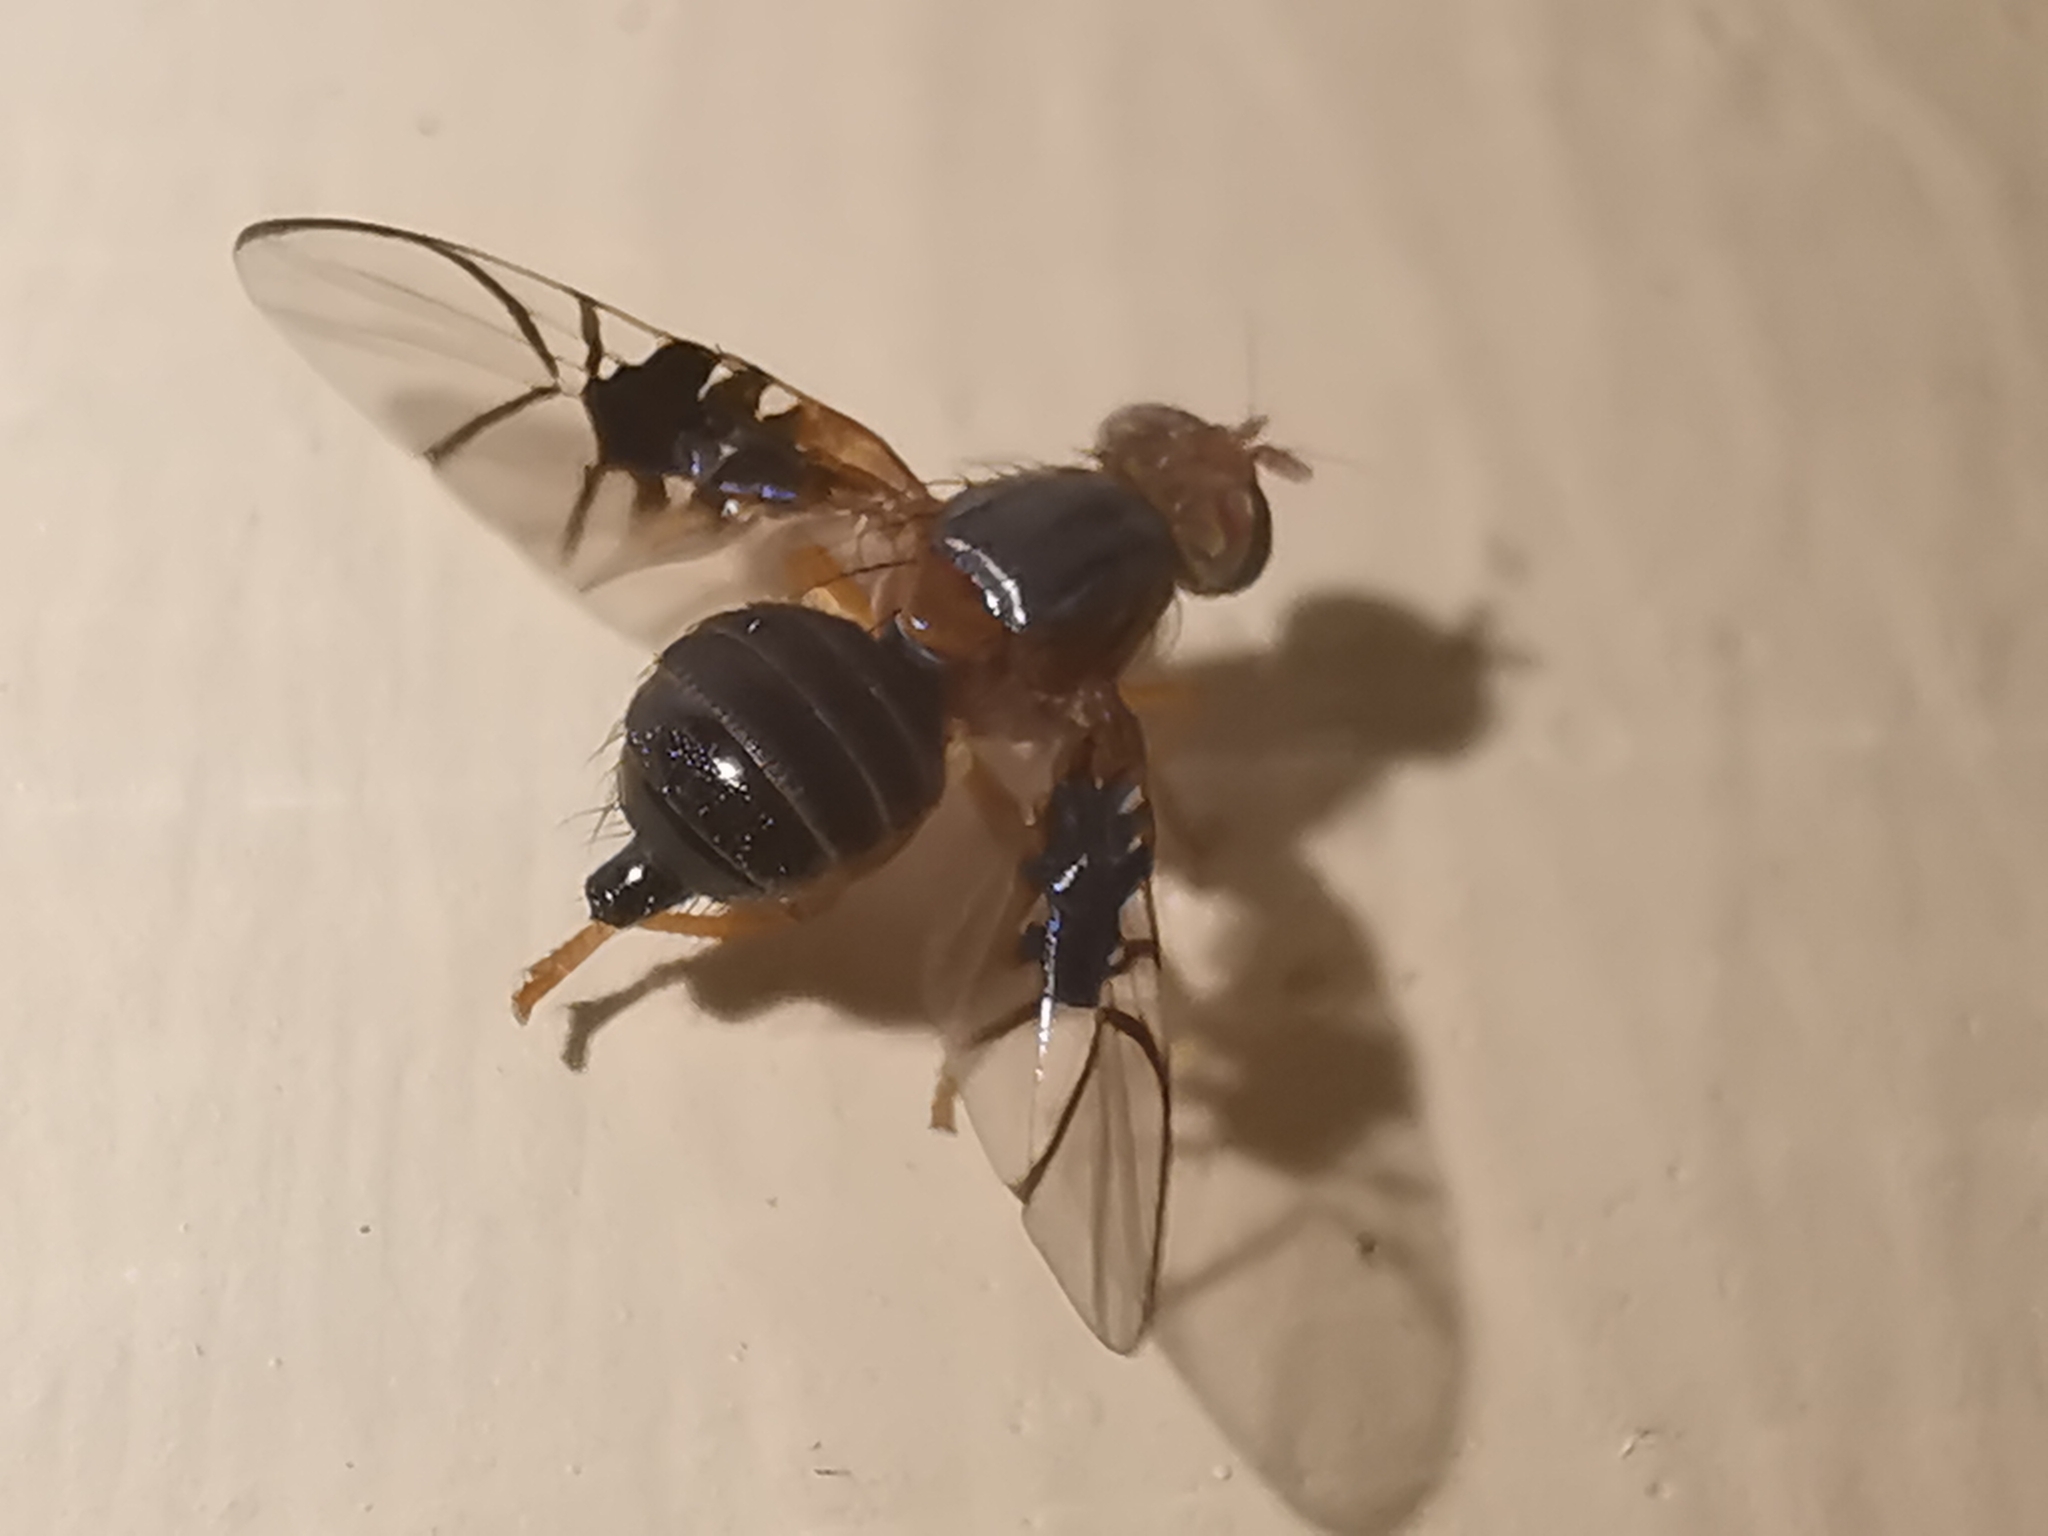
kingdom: Animalia
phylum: Arthropoda
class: Insecta
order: Diptera
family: Tephritidae
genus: Anomoia
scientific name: Anomoia purmunda
